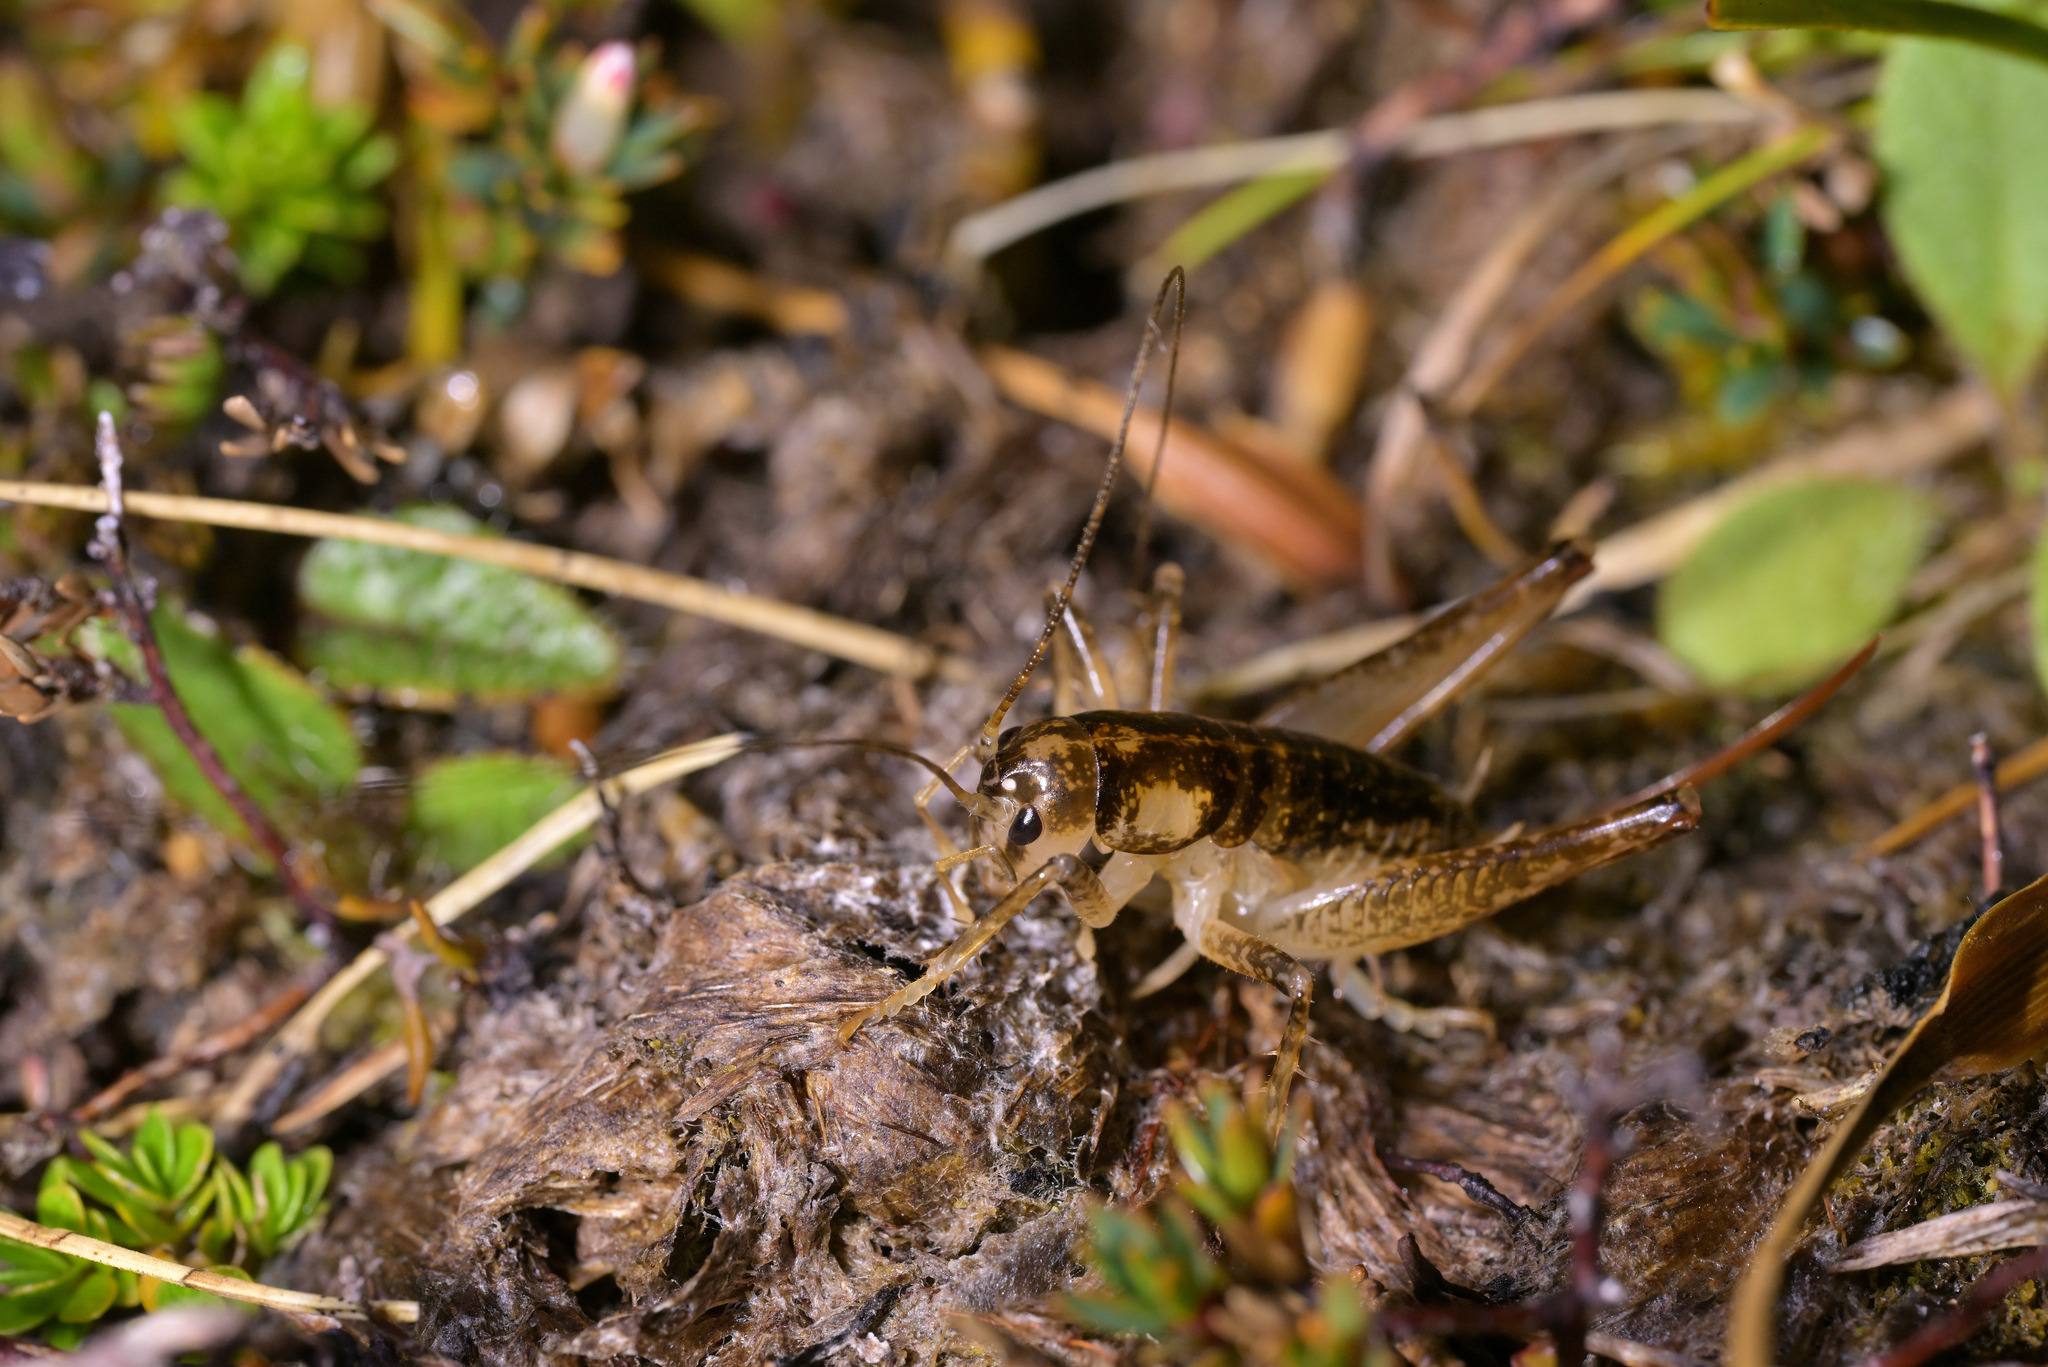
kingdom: Animalia
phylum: Arthropoda
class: Insecta
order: Orthoptera
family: Anostostomatidae
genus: Hemiandrus
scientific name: Hemiandrus maculifrons
